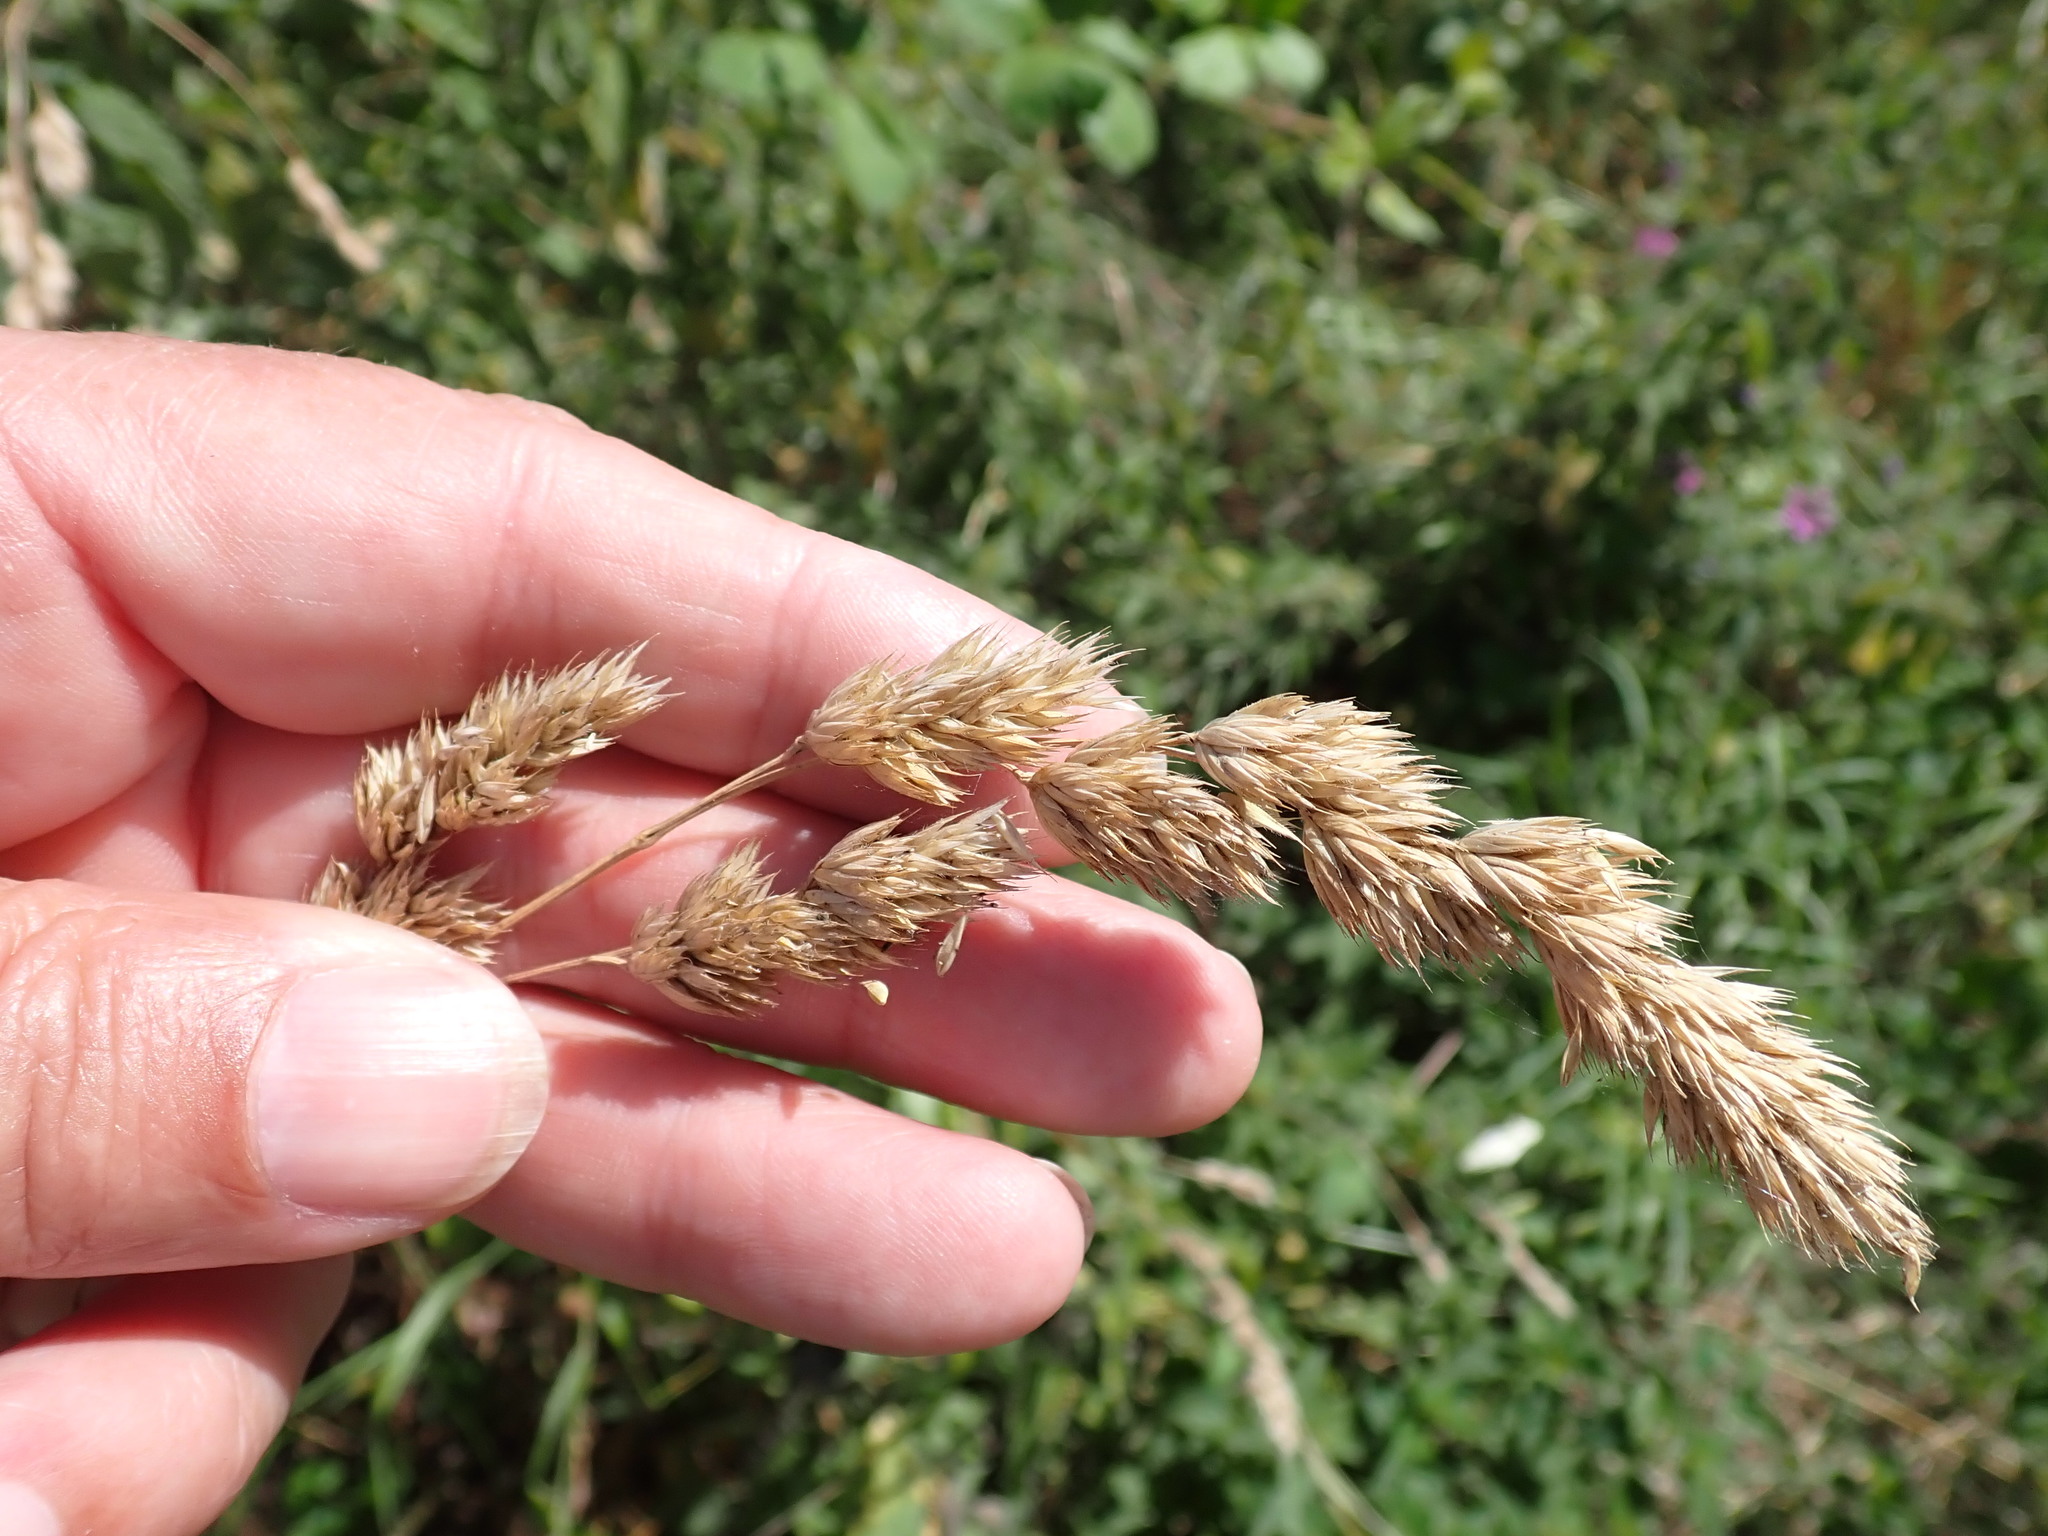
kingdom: Plantae
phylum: Tracheophyta
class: Liliopsida
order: Poales
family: Poaceae
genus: Dactylis
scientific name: Dactylis glomerata
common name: Orchardgrass
